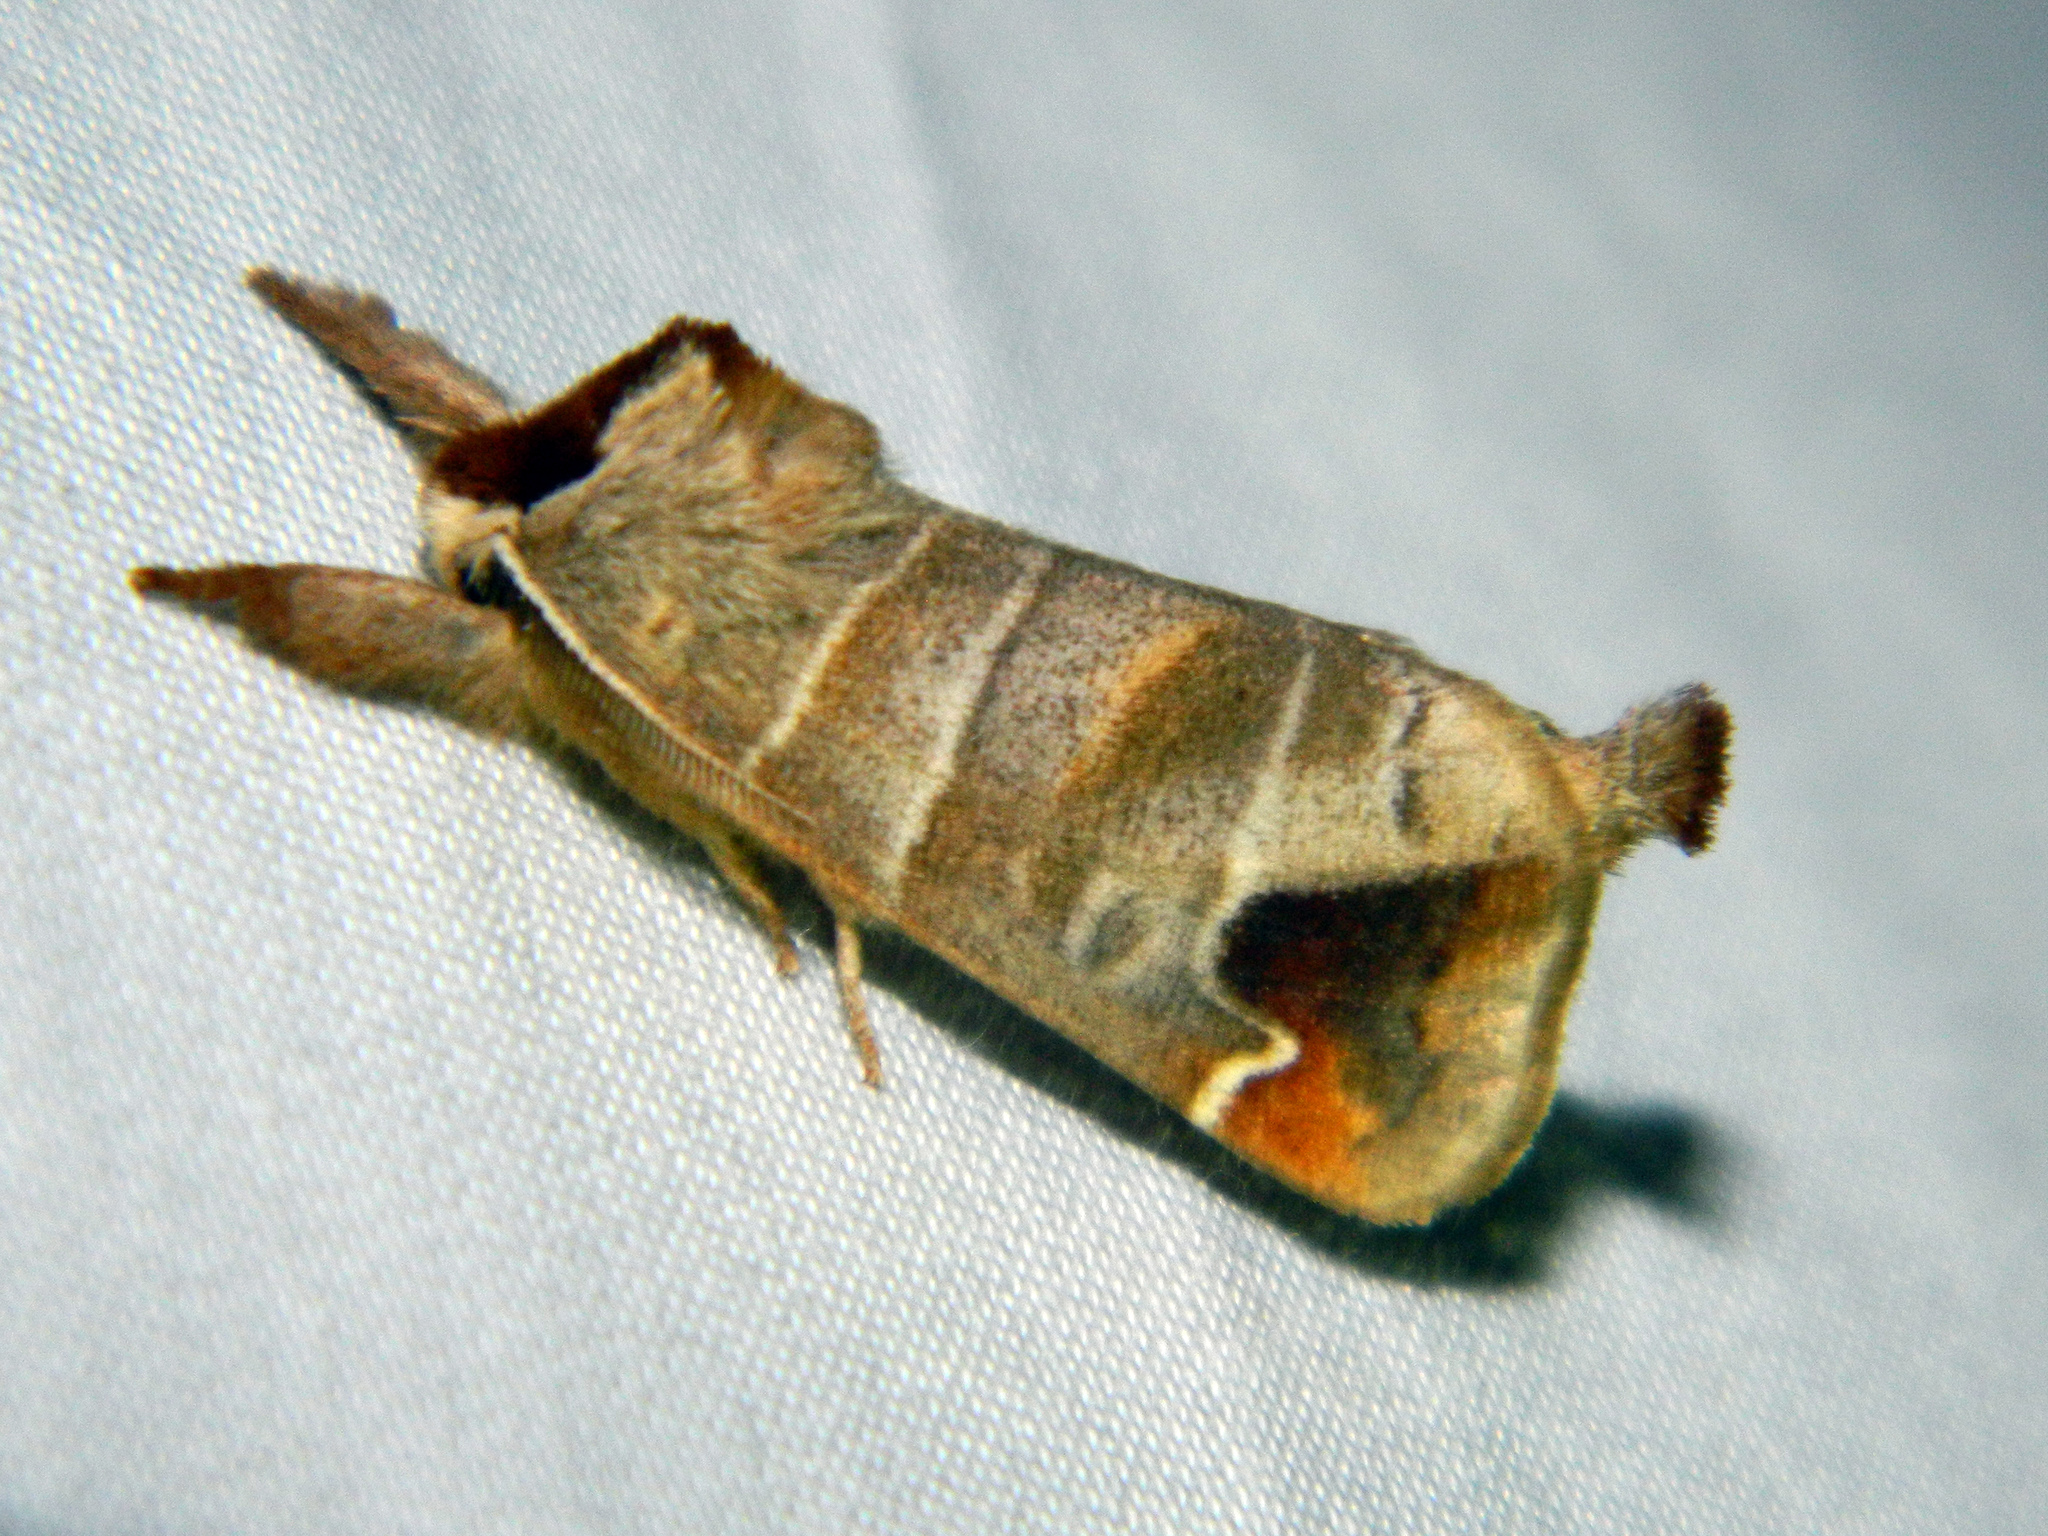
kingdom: Animalia
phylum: Arthropoda
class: Insecta
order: Lepidoptera
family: Notodontidae
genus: Clostera
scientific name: Clostera albosigma
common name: Sigmoid prominent
